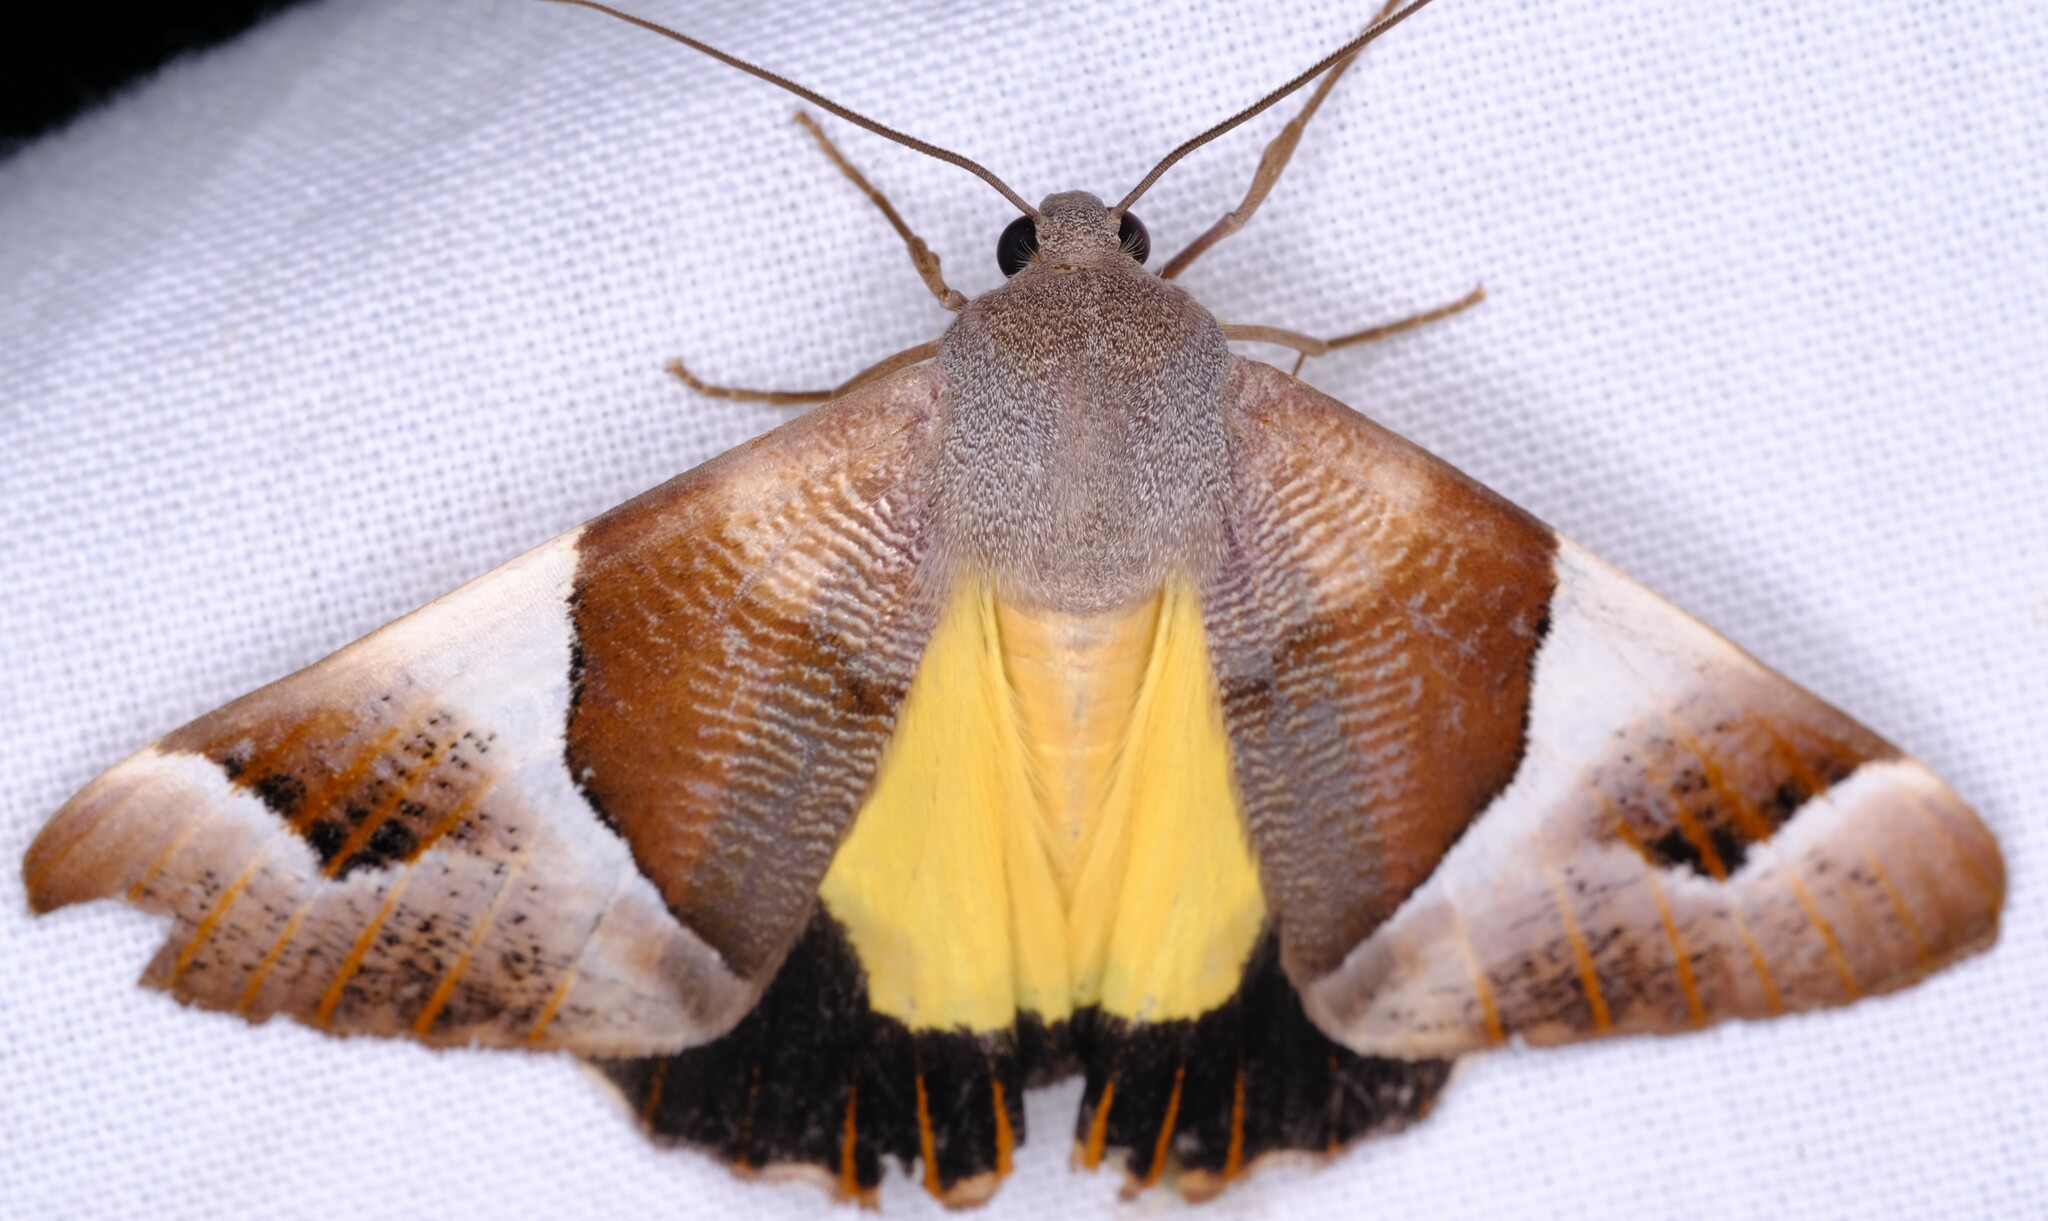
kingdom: Animalia
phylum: Arthropoda
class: Insecta
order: Lepidoptera
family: Geometridae
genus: Niceteria
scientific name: Niceteria macrocosma
